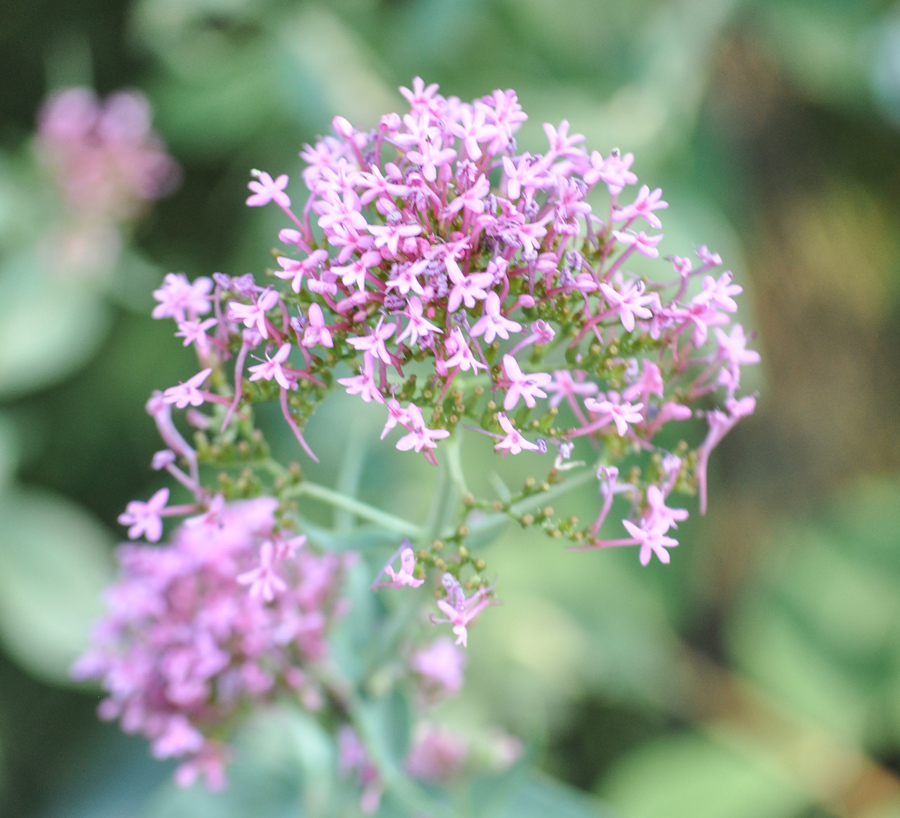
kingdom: Plantae
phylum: Tracheophyta
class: Magnoliopsida
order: Dipsacales
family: Caprifoliaceae
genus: Centranthus
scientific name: Centranthus ruber
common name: Red valerian
